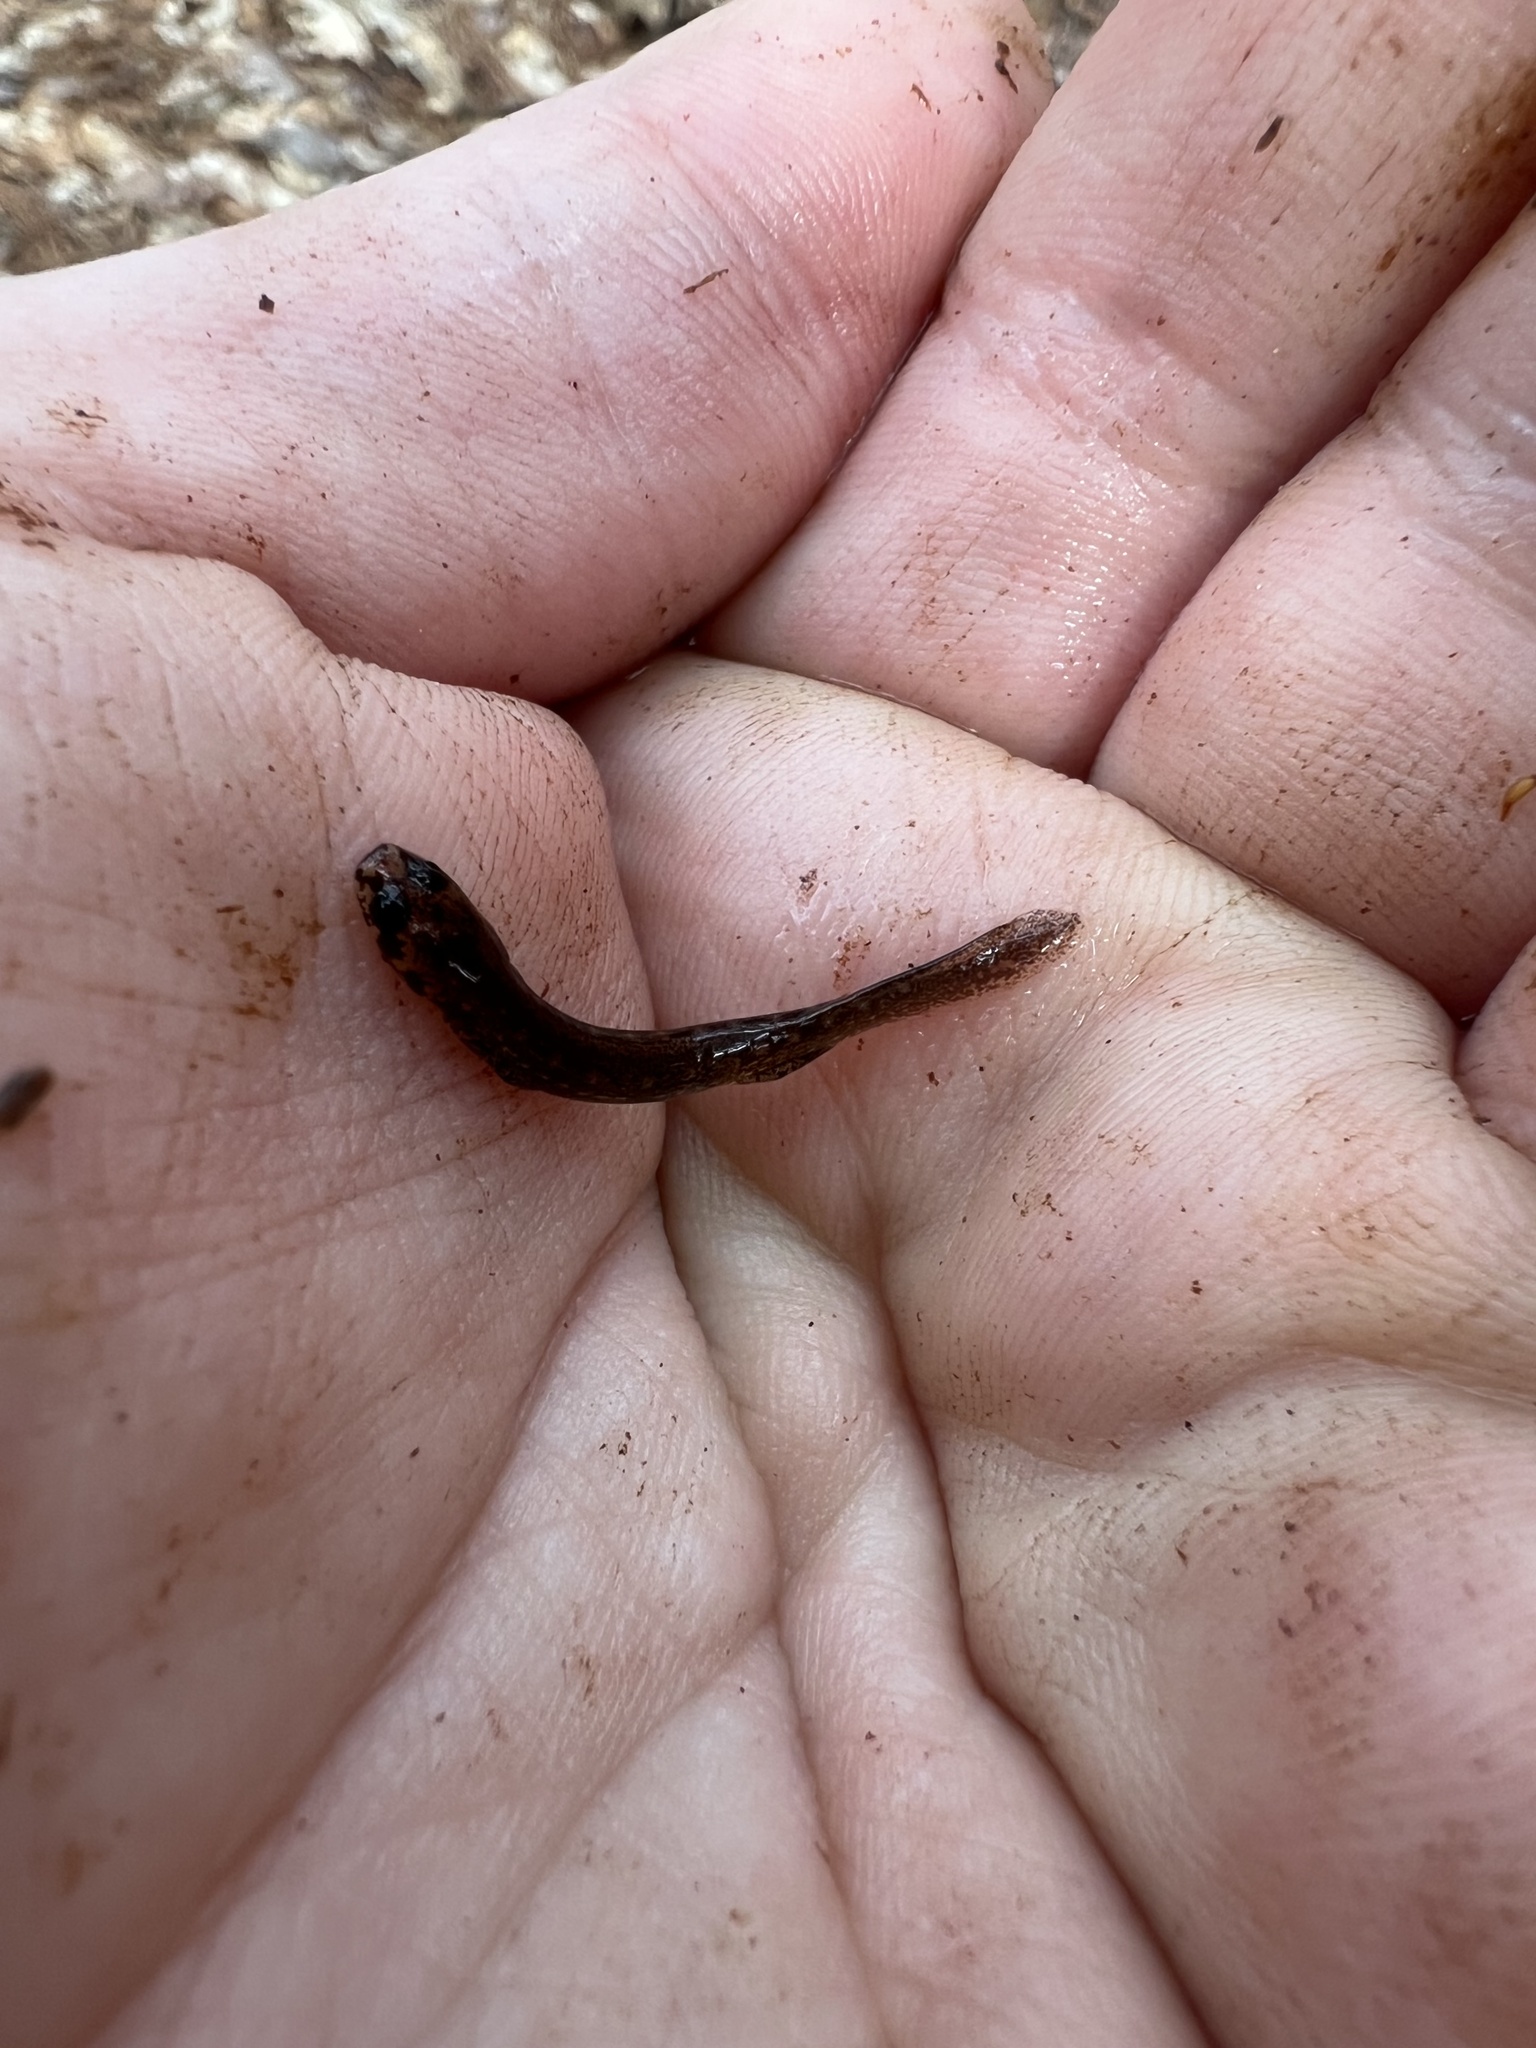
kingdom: Animalia
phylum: Chordata
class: Amphibia
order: Caudata
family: Plethodontidae
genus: Eurycea
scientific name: Eurycea cirrigera
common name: Southern two-lined salamander
